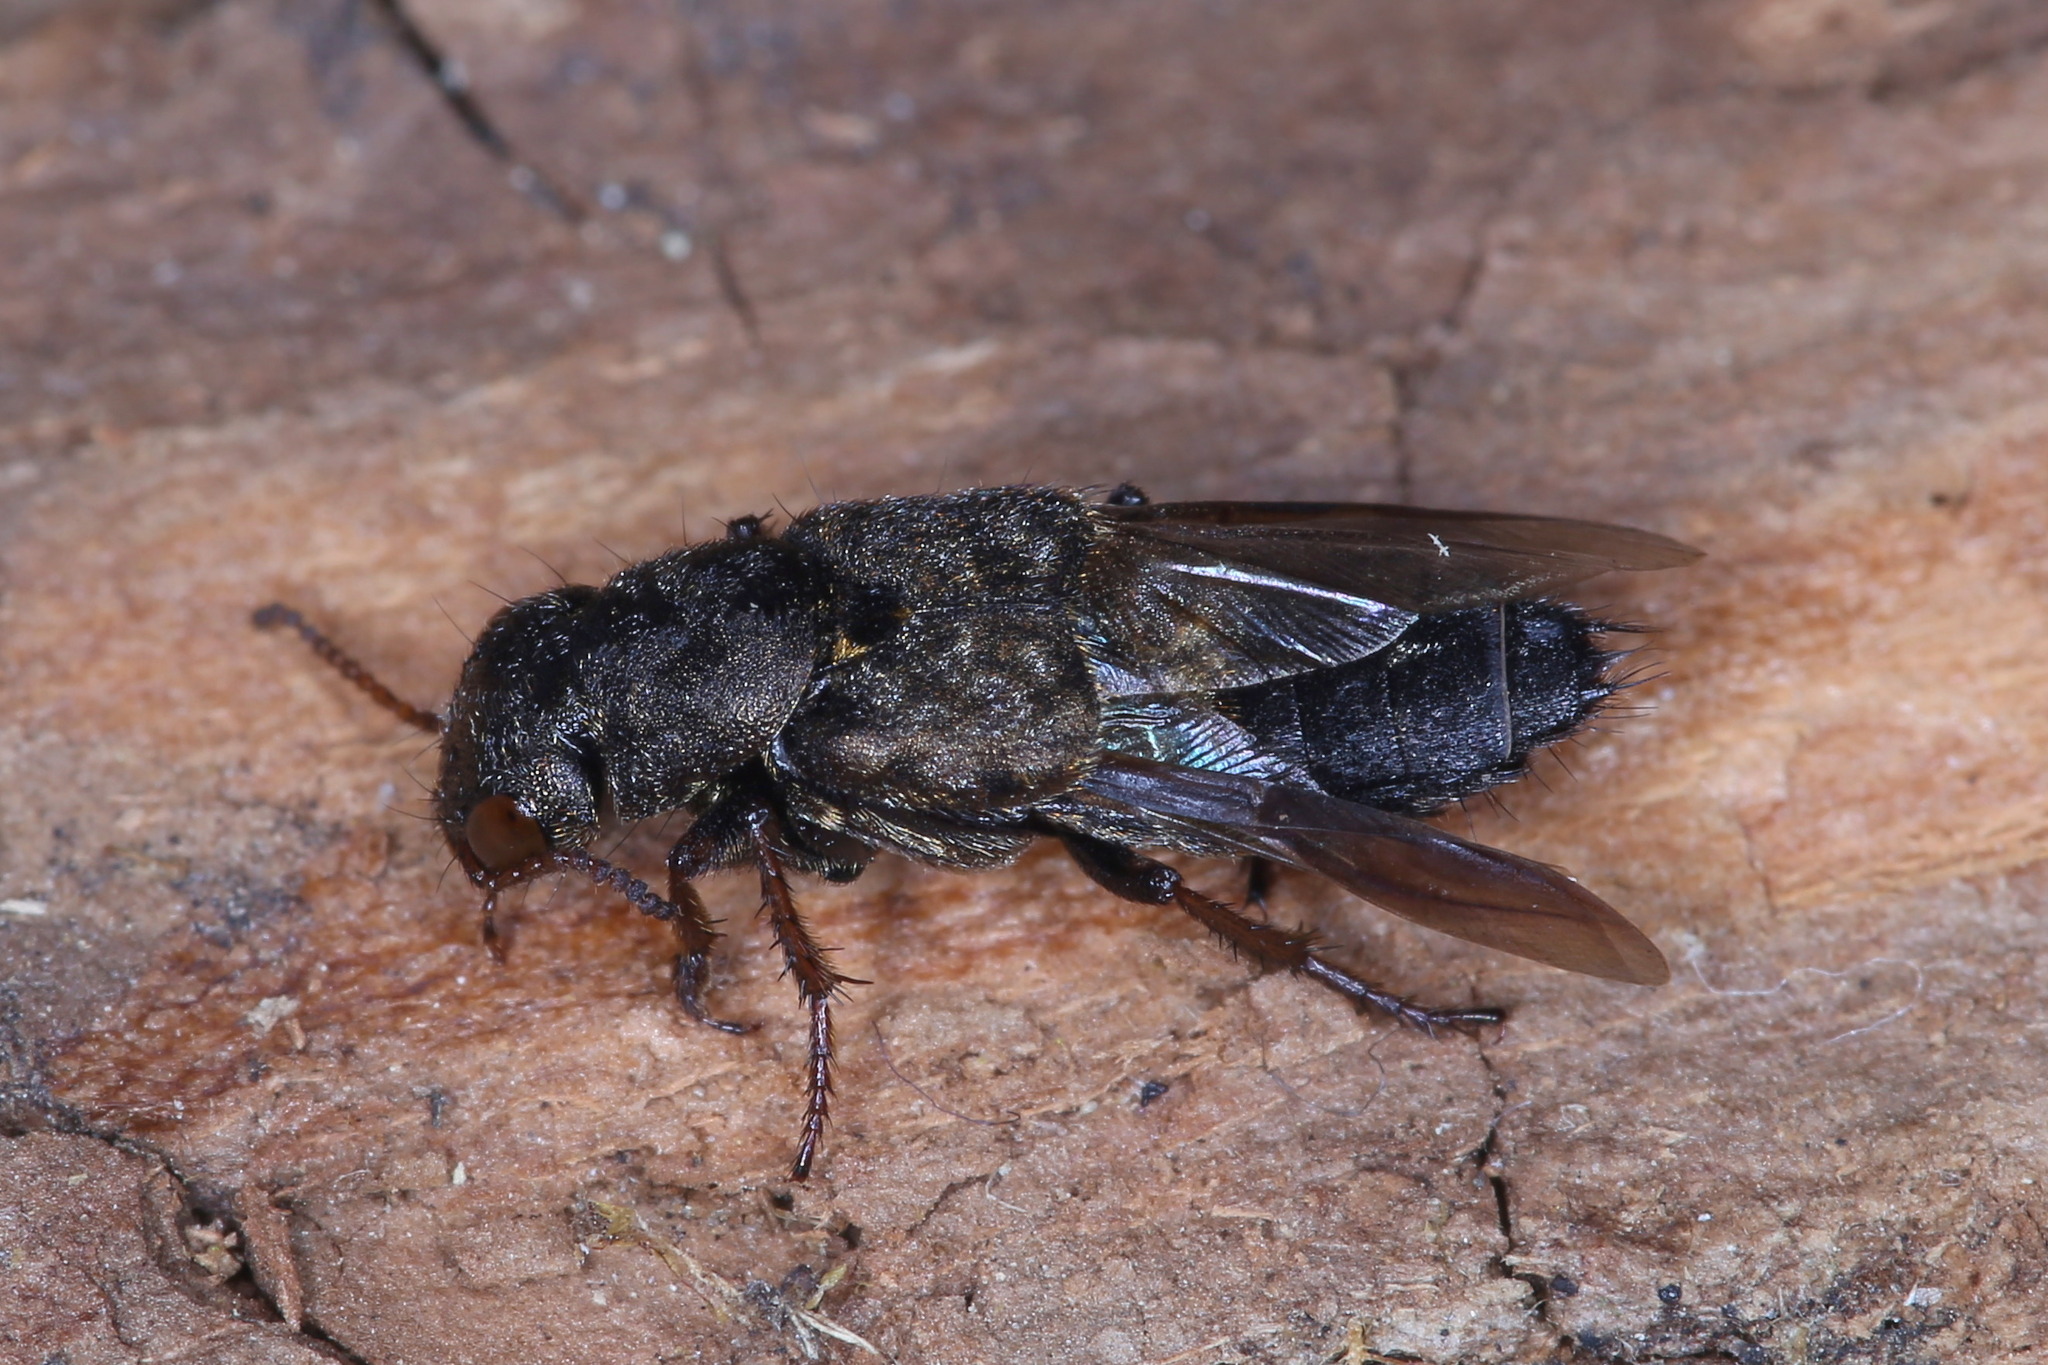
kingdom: Animalia
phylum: Arthropoda
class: Insecta
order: Coleoptera
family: Staphylinidae
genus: Ontholestes
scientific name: Ontholestes haroldi
